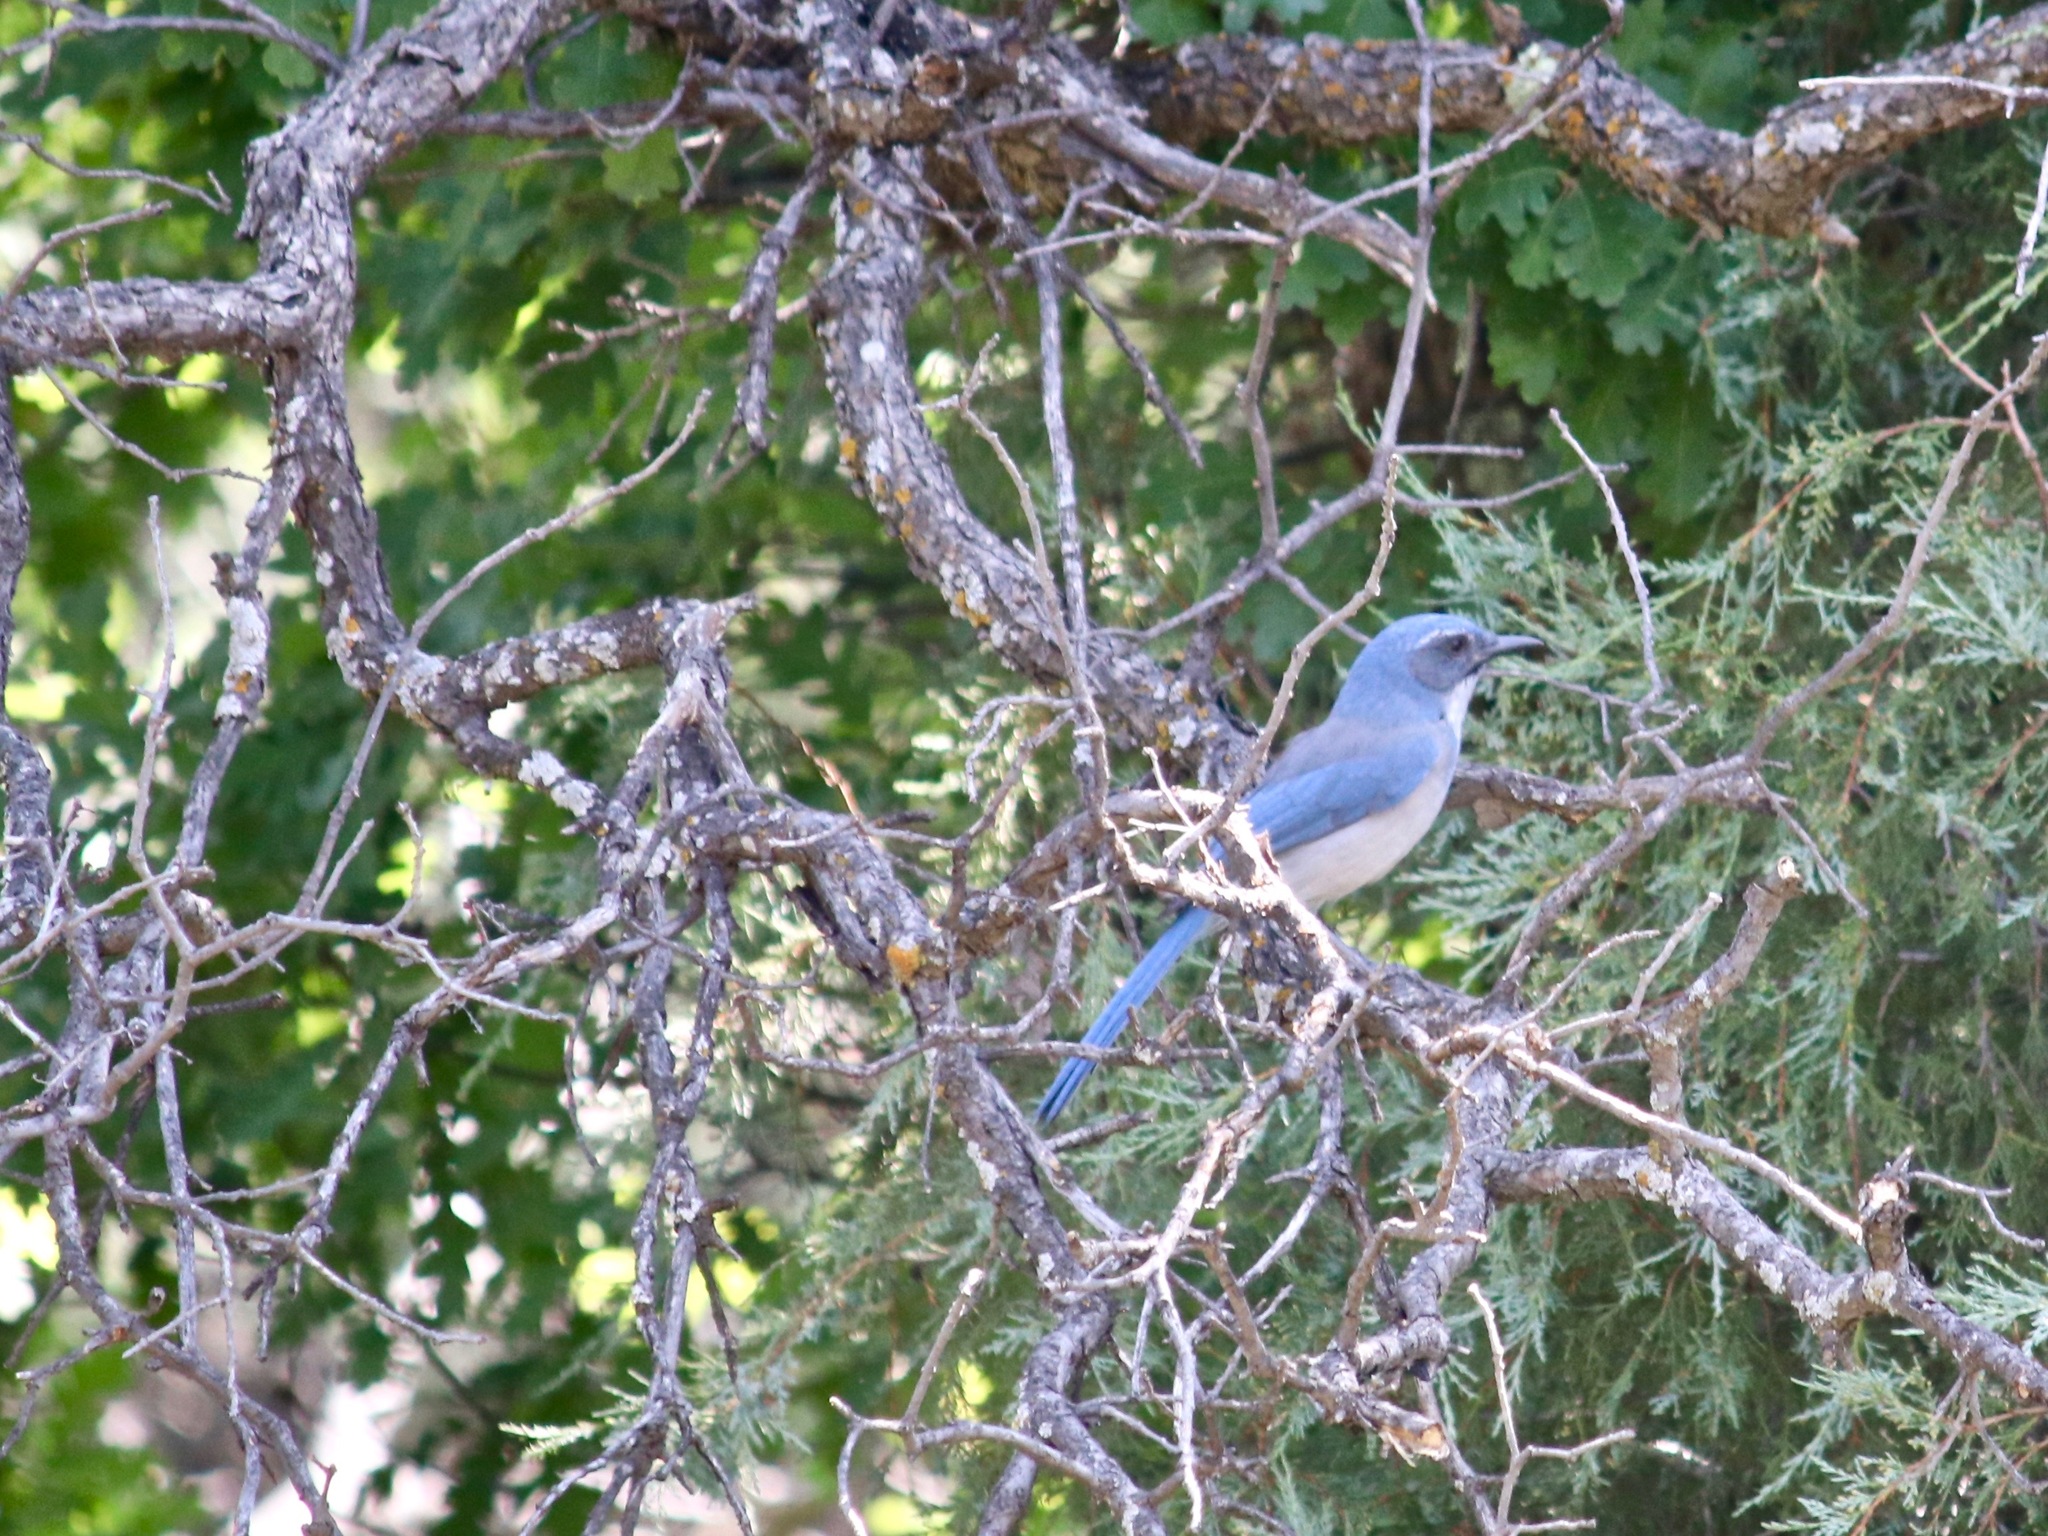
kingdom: Animalia
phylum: Chordata
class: Aves
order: Passeriformes
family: Corvidae
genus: Aphelocoma
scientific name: Aphelocoma woodhouseii
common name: Woodhouse's scrub-jay
